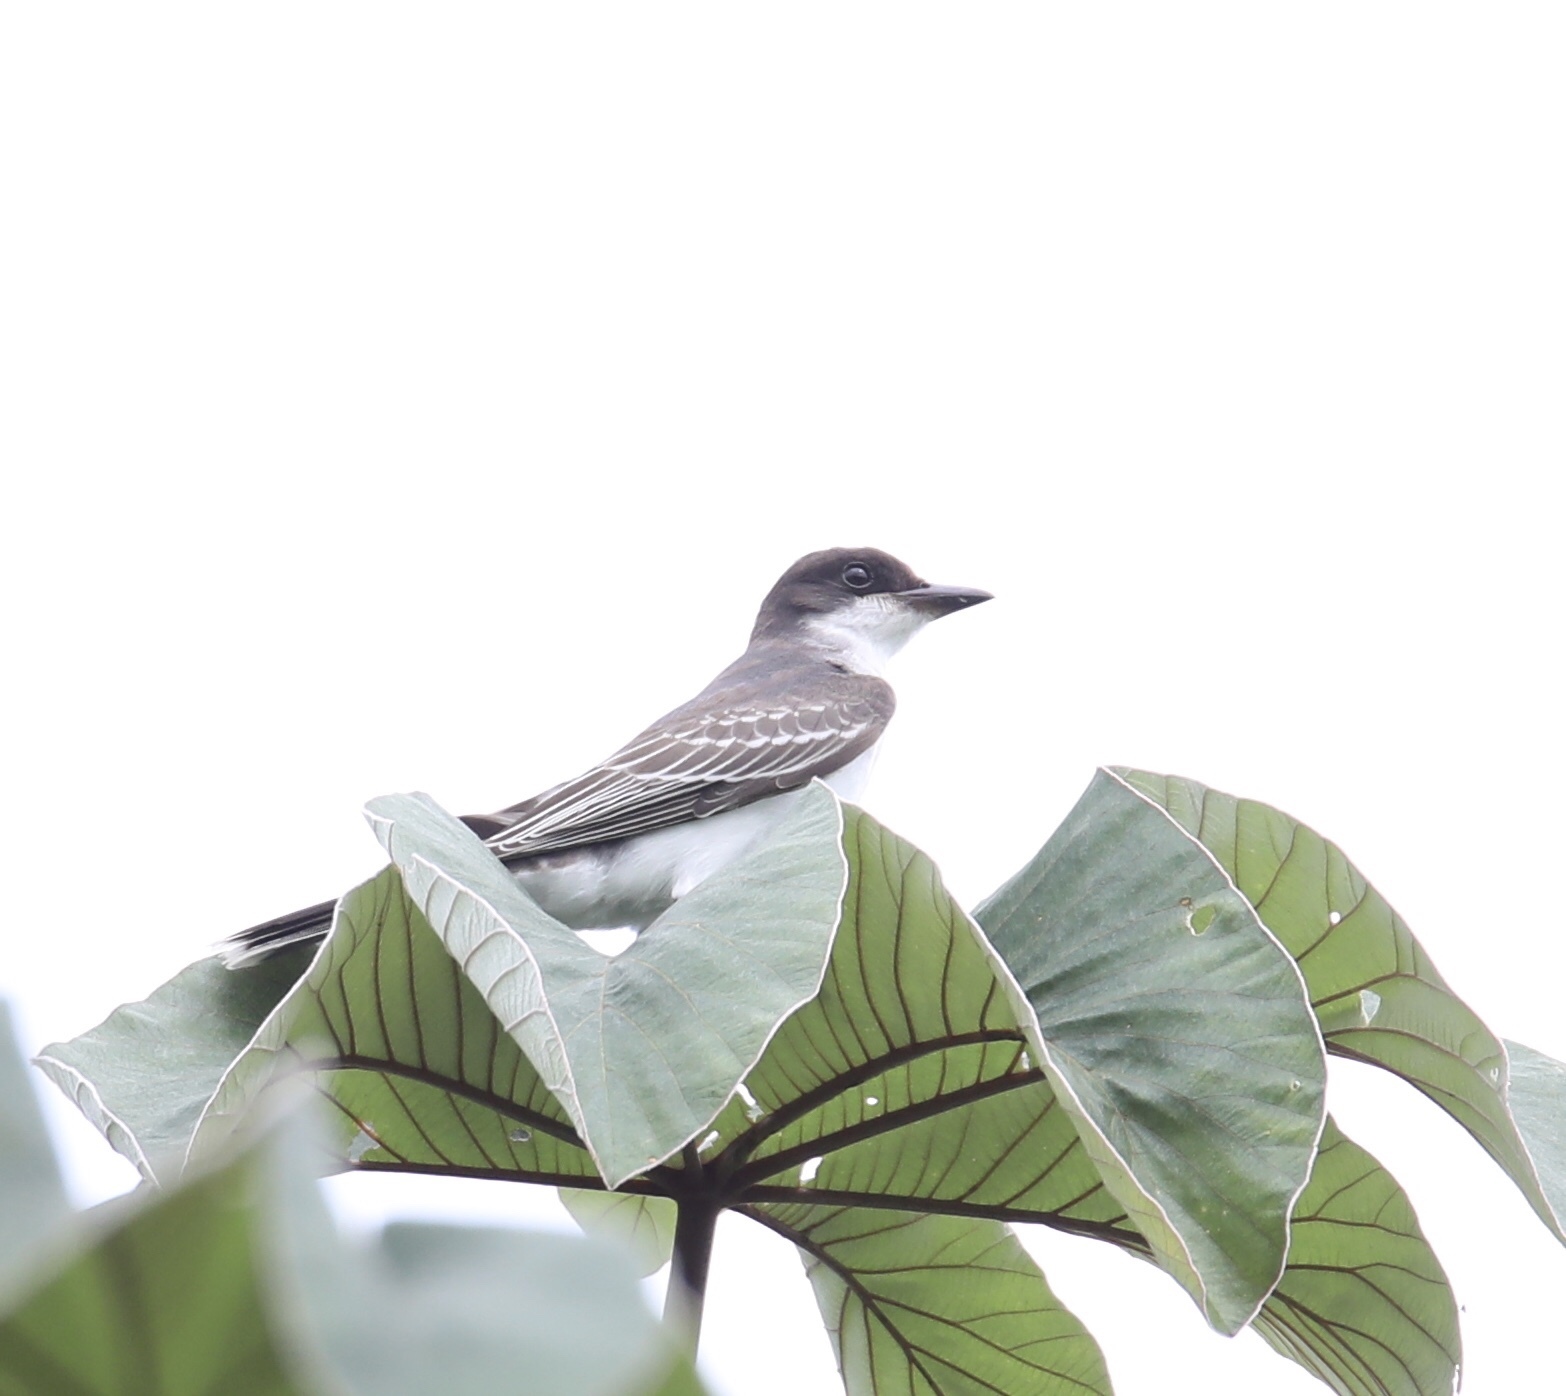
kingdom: Animalia
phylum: Chordata
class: Aves
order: Passeriformes
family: Tyrannidae
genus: Tyrannus
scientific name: Tyrannus tyrannus
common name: Eastern kingbird
